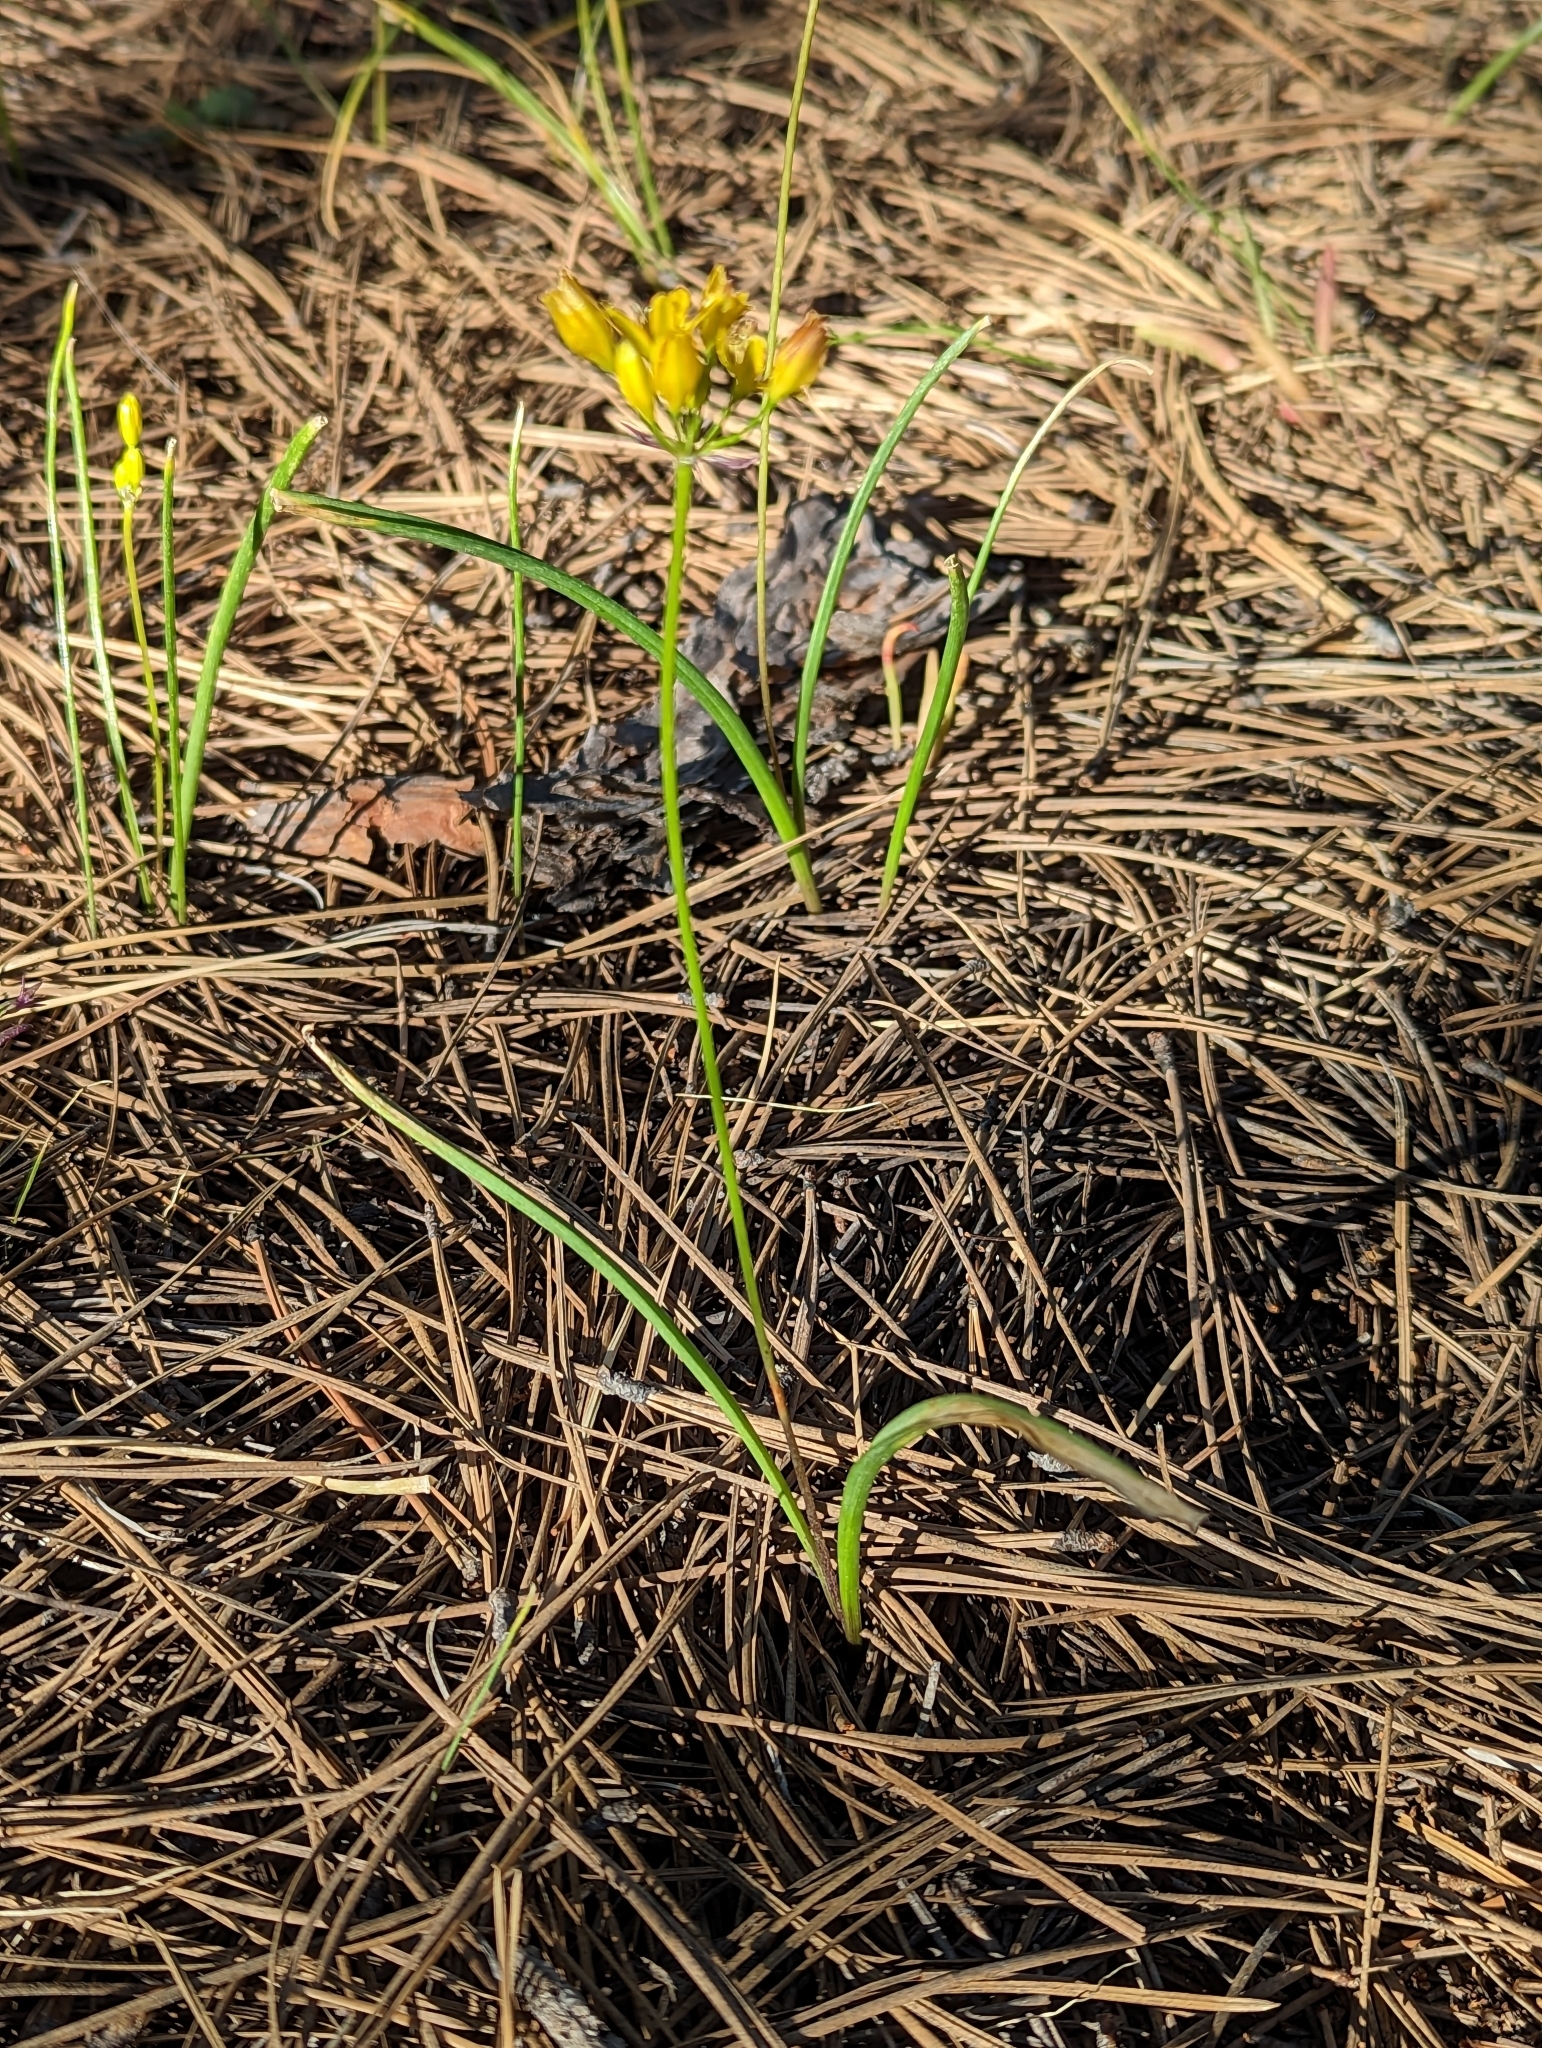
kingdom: Plantae
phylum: Tracheophyta
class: Liliopsida
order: Asparagales
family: Asparagaceae
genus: Triteleia
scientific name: Triteleia lemmoniae
